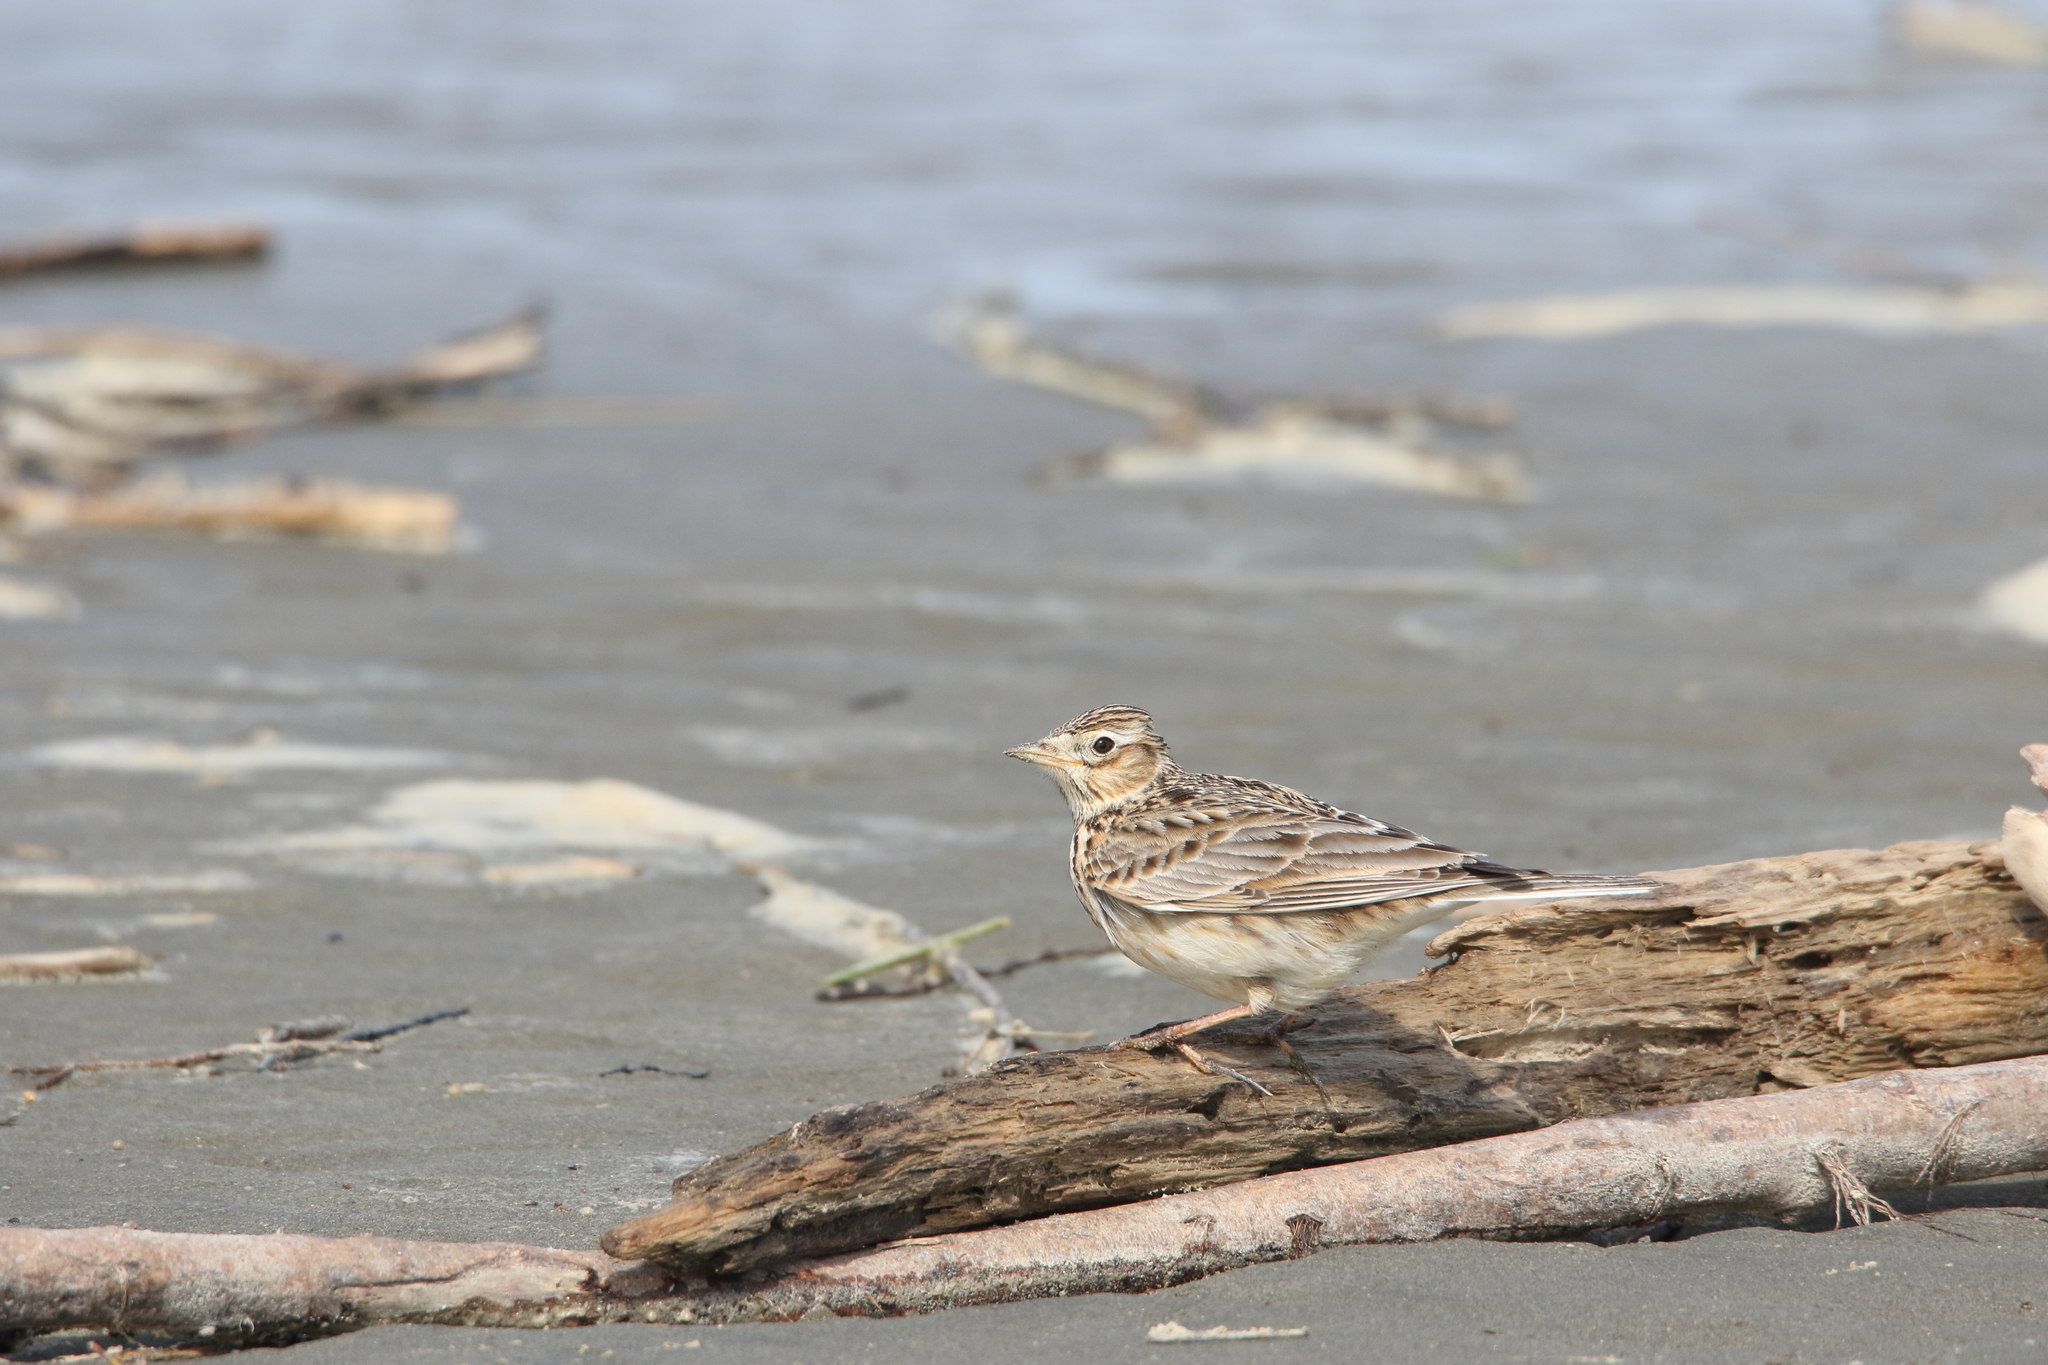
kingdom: Animalia
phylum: Chordata
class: Aves
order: Passeriformes
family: Alaudidae
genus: Alauda
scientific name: Alauda arvensis
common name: Eurasian skylark
